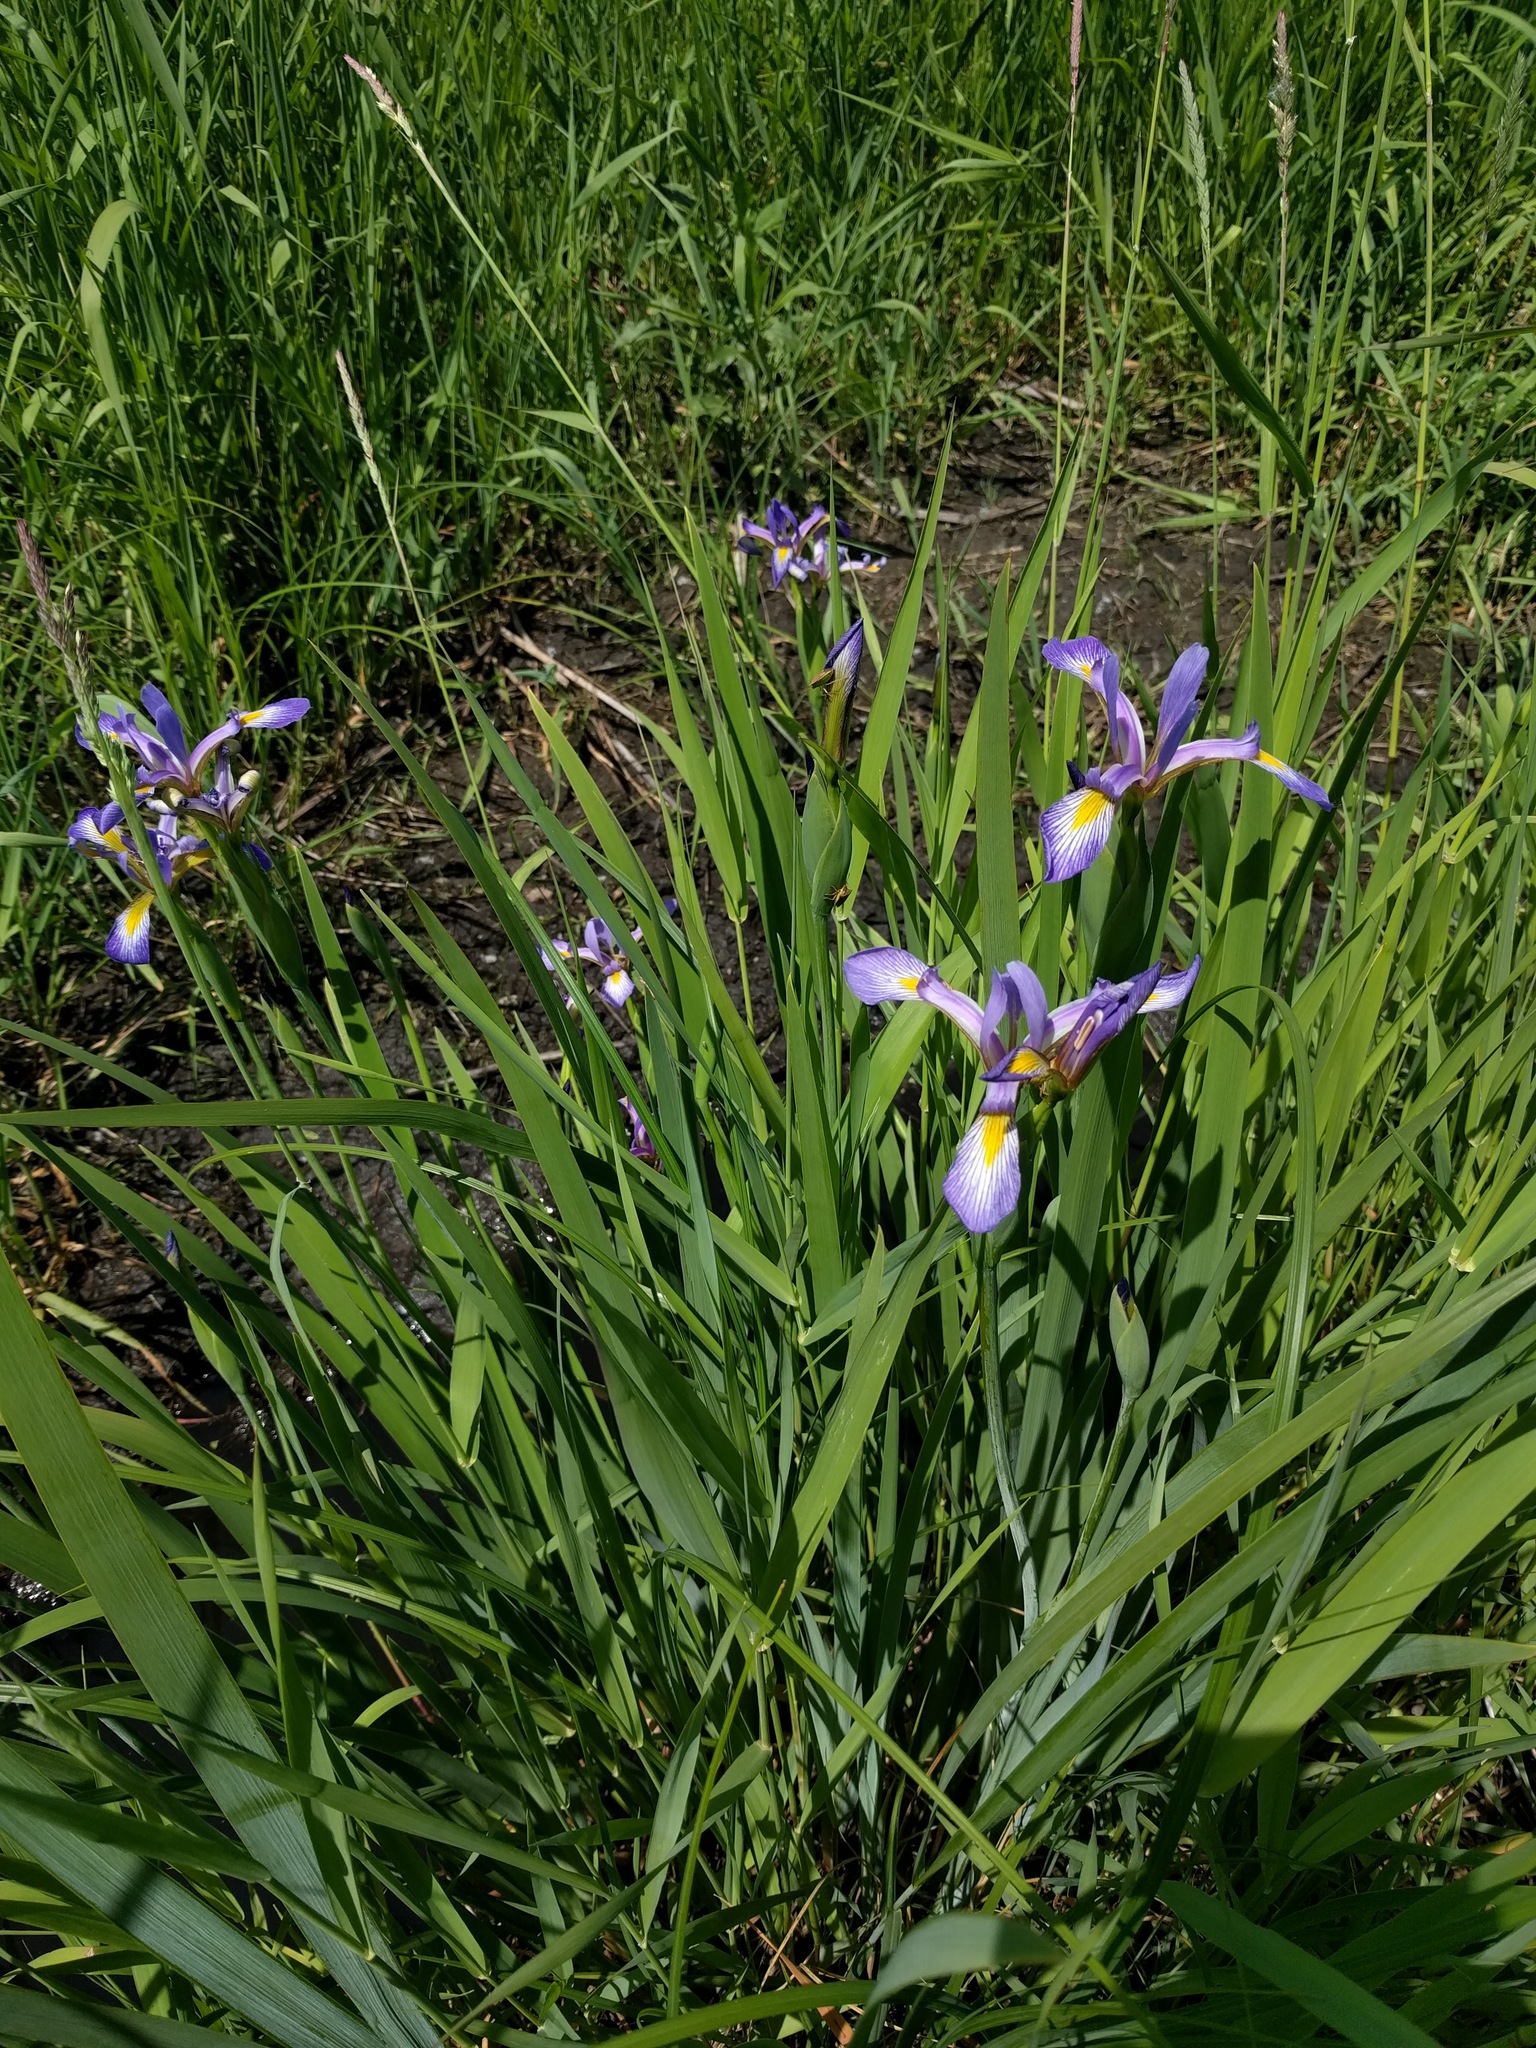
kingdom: Plantae
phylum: Tracheophyta
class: Liliopsida
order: Asparagales
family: Iridaceae
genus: Iris
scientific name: Iris versicolor
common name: Purple iris
